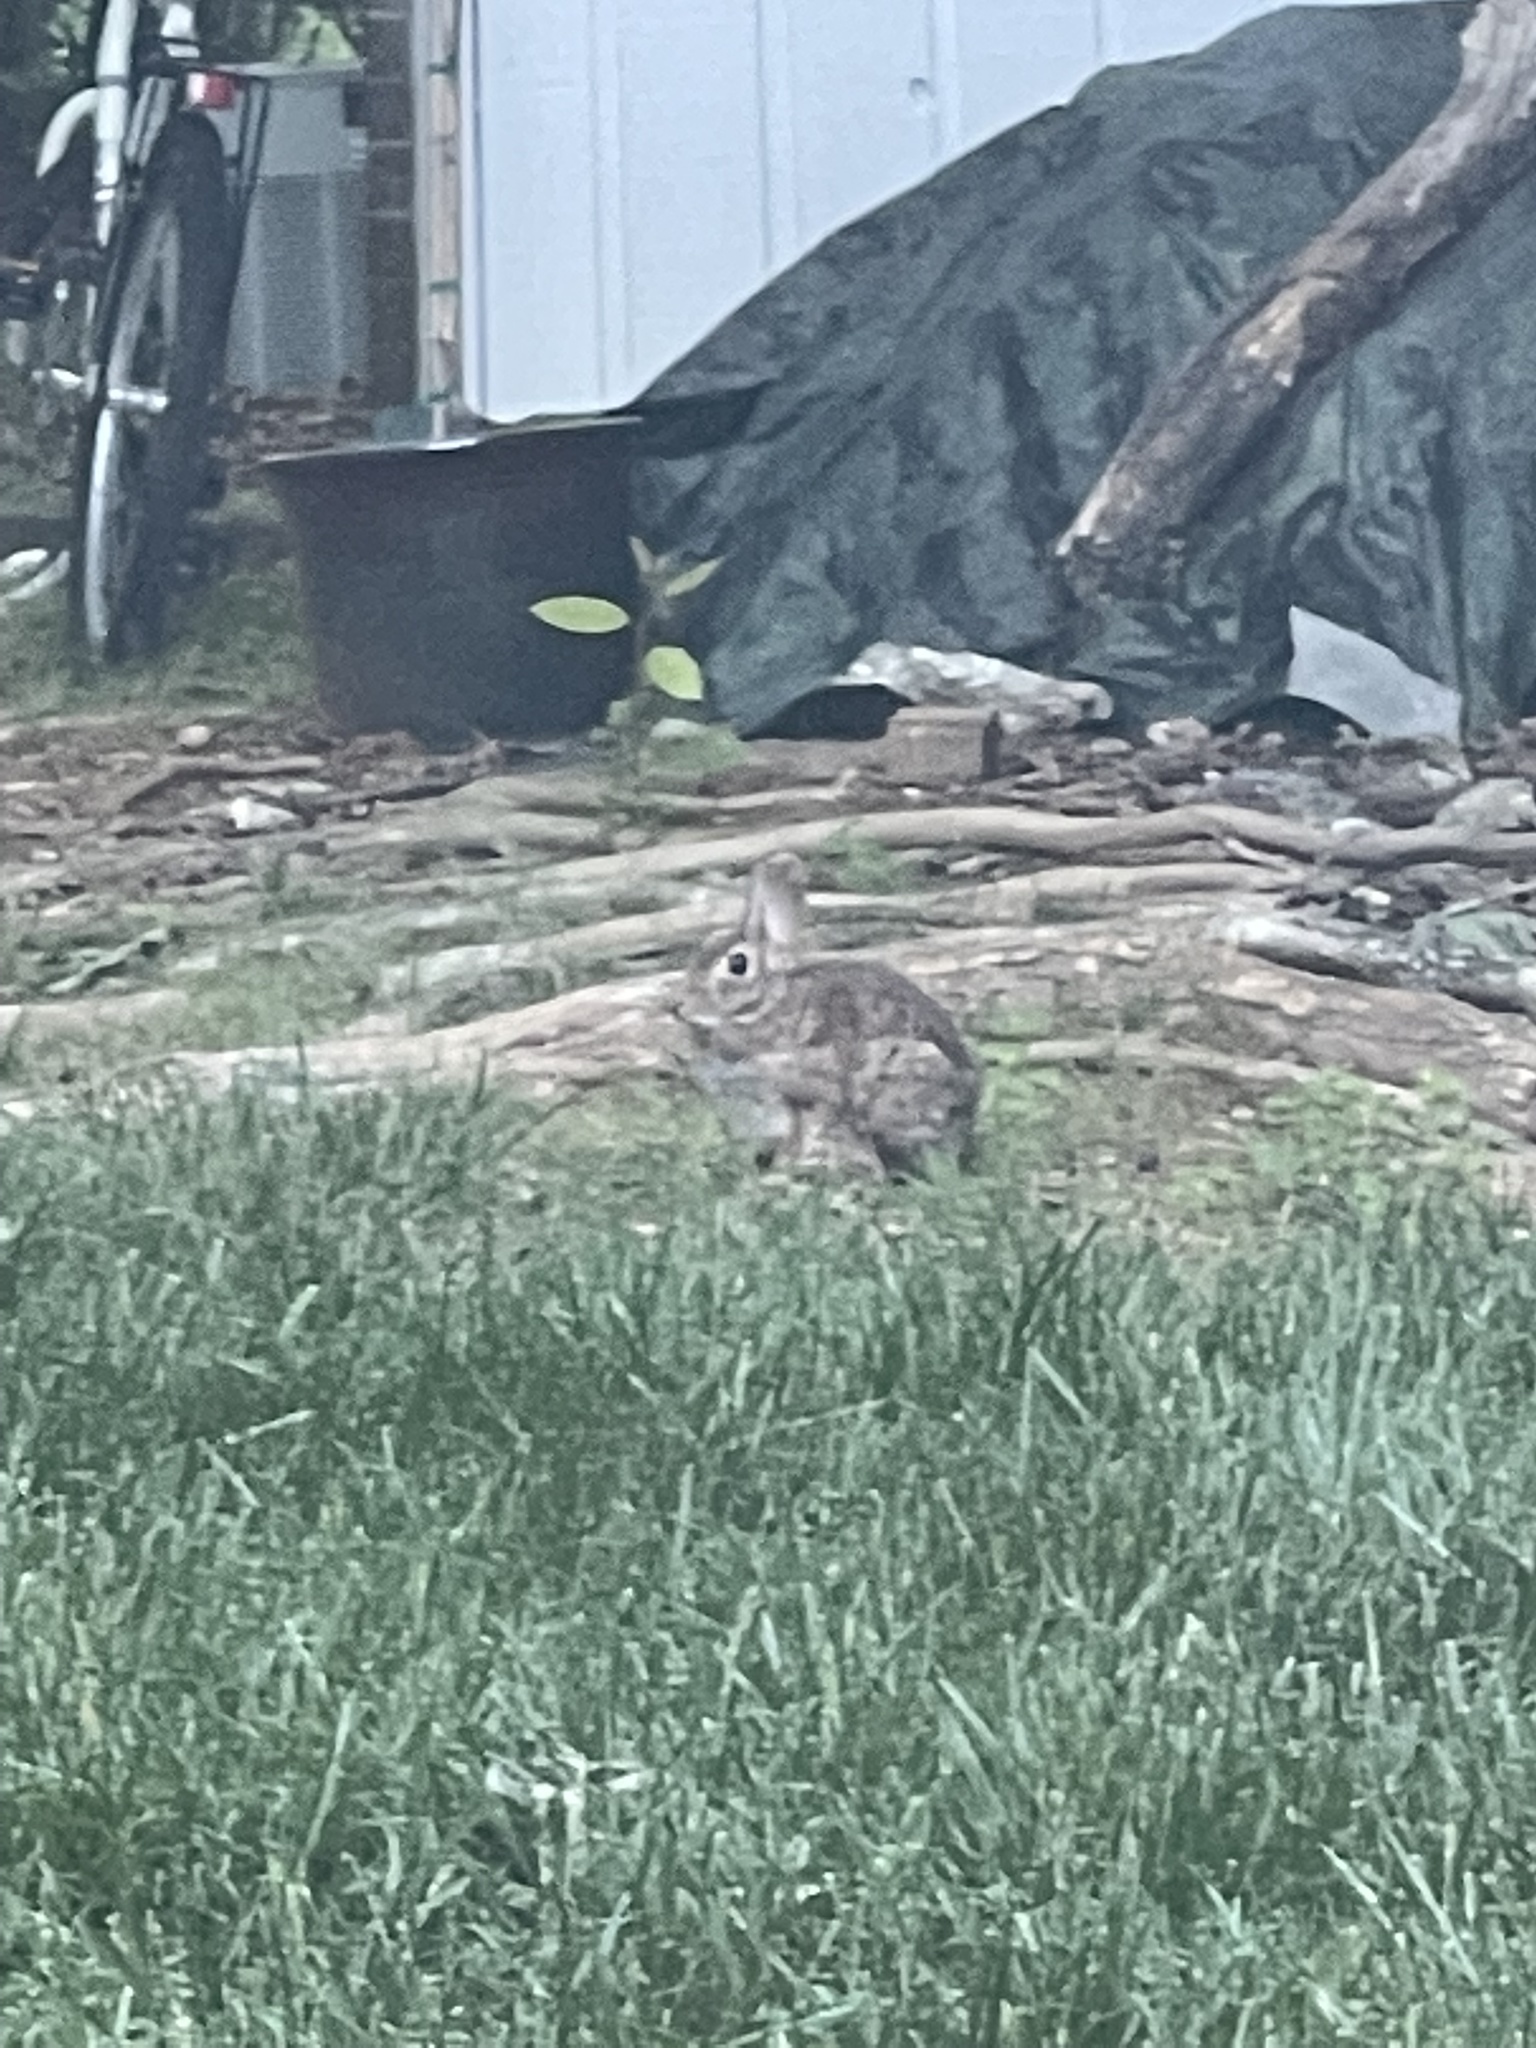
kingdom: Animalia
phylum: Chordata
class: Mammalia
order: Lagomorpha
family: Leporidae
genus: Sylvilagus
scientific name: Sylvilagus floridanus
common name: Eastern cottontail
